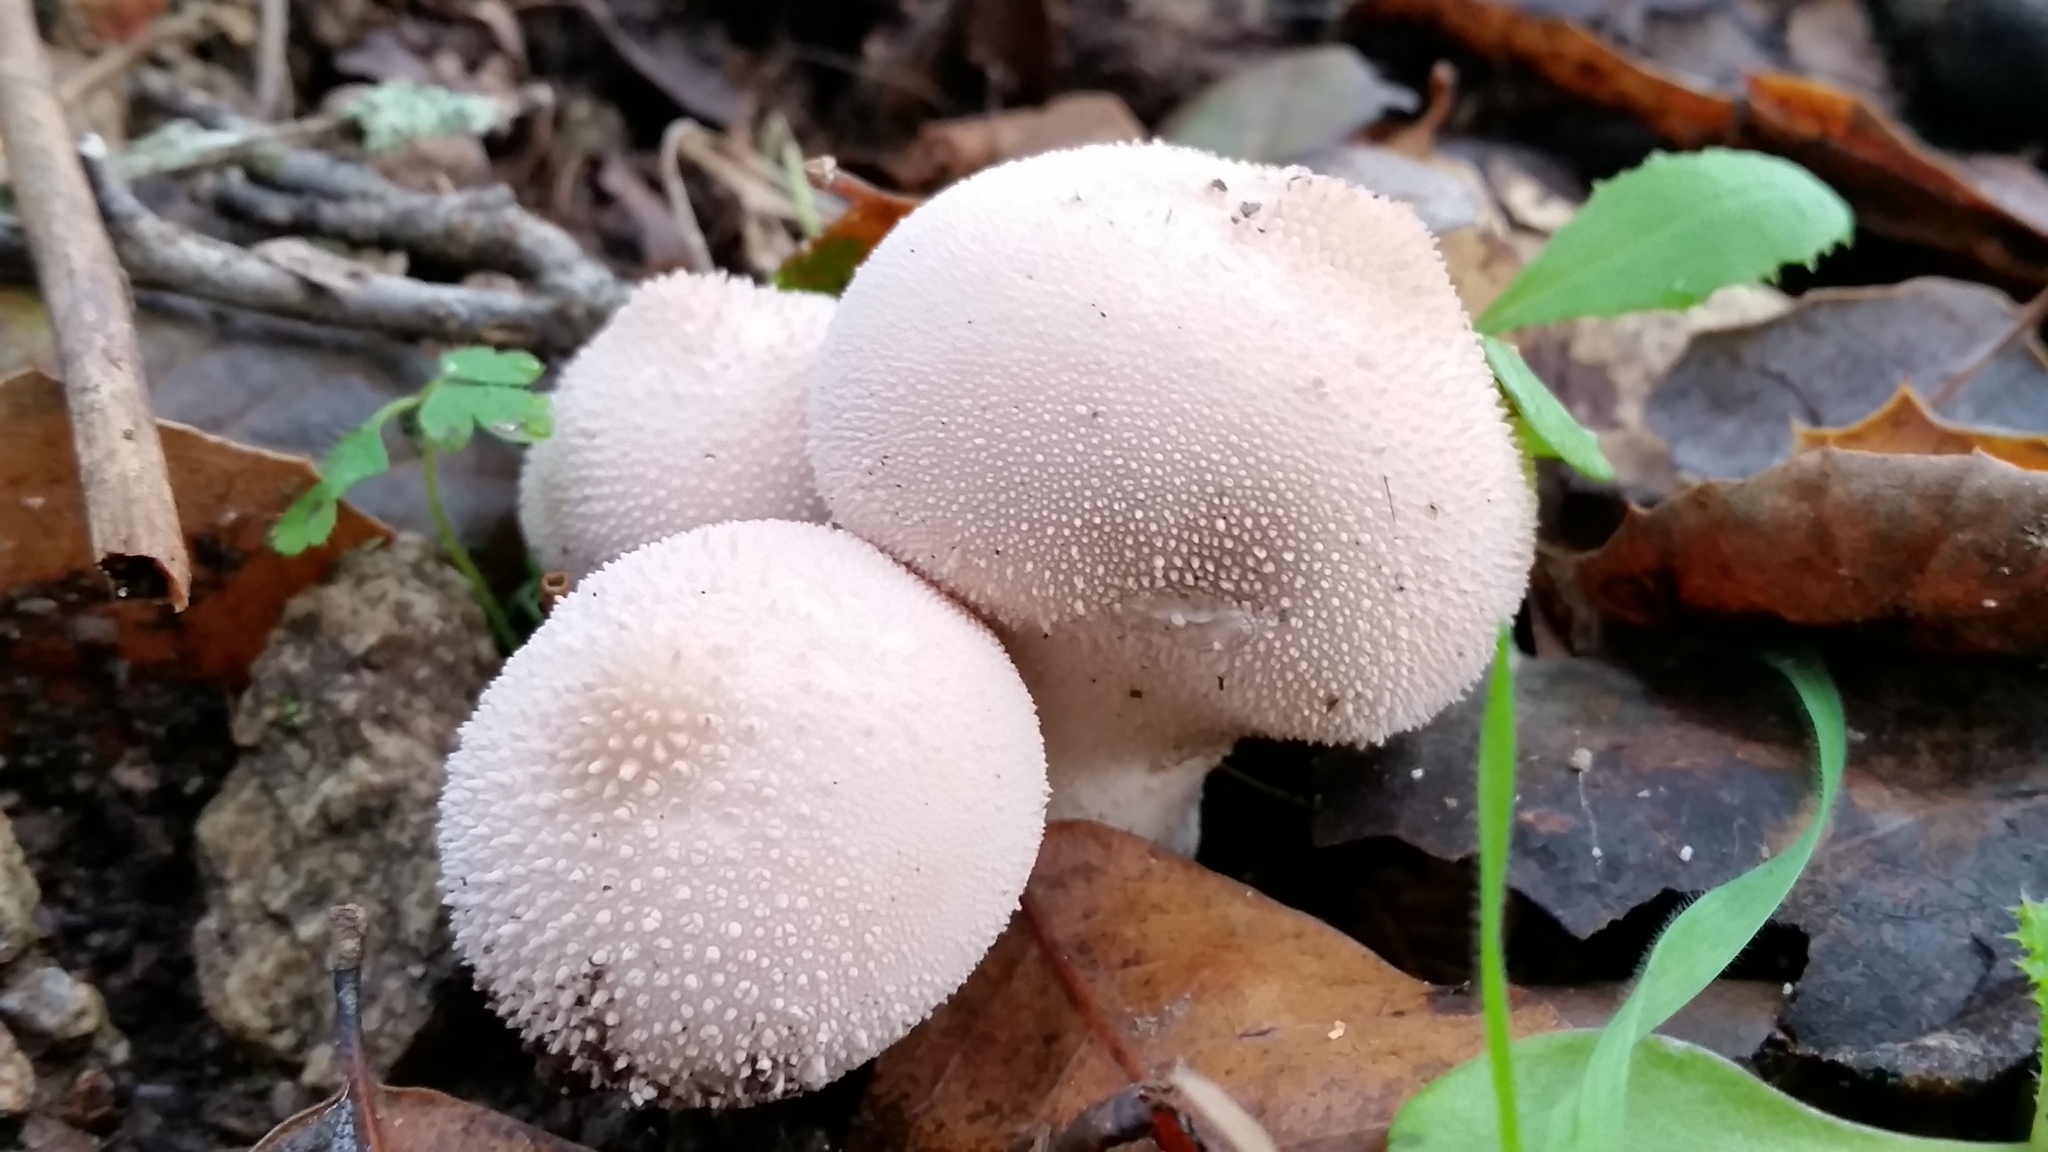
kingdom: Fungi
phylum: Basidiomycota
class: Agaricomycetes
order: Agaricales
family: Lycoperdaceae
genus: Lycoperdon
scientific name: Lycoperdon perlatum
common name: Common puffball
